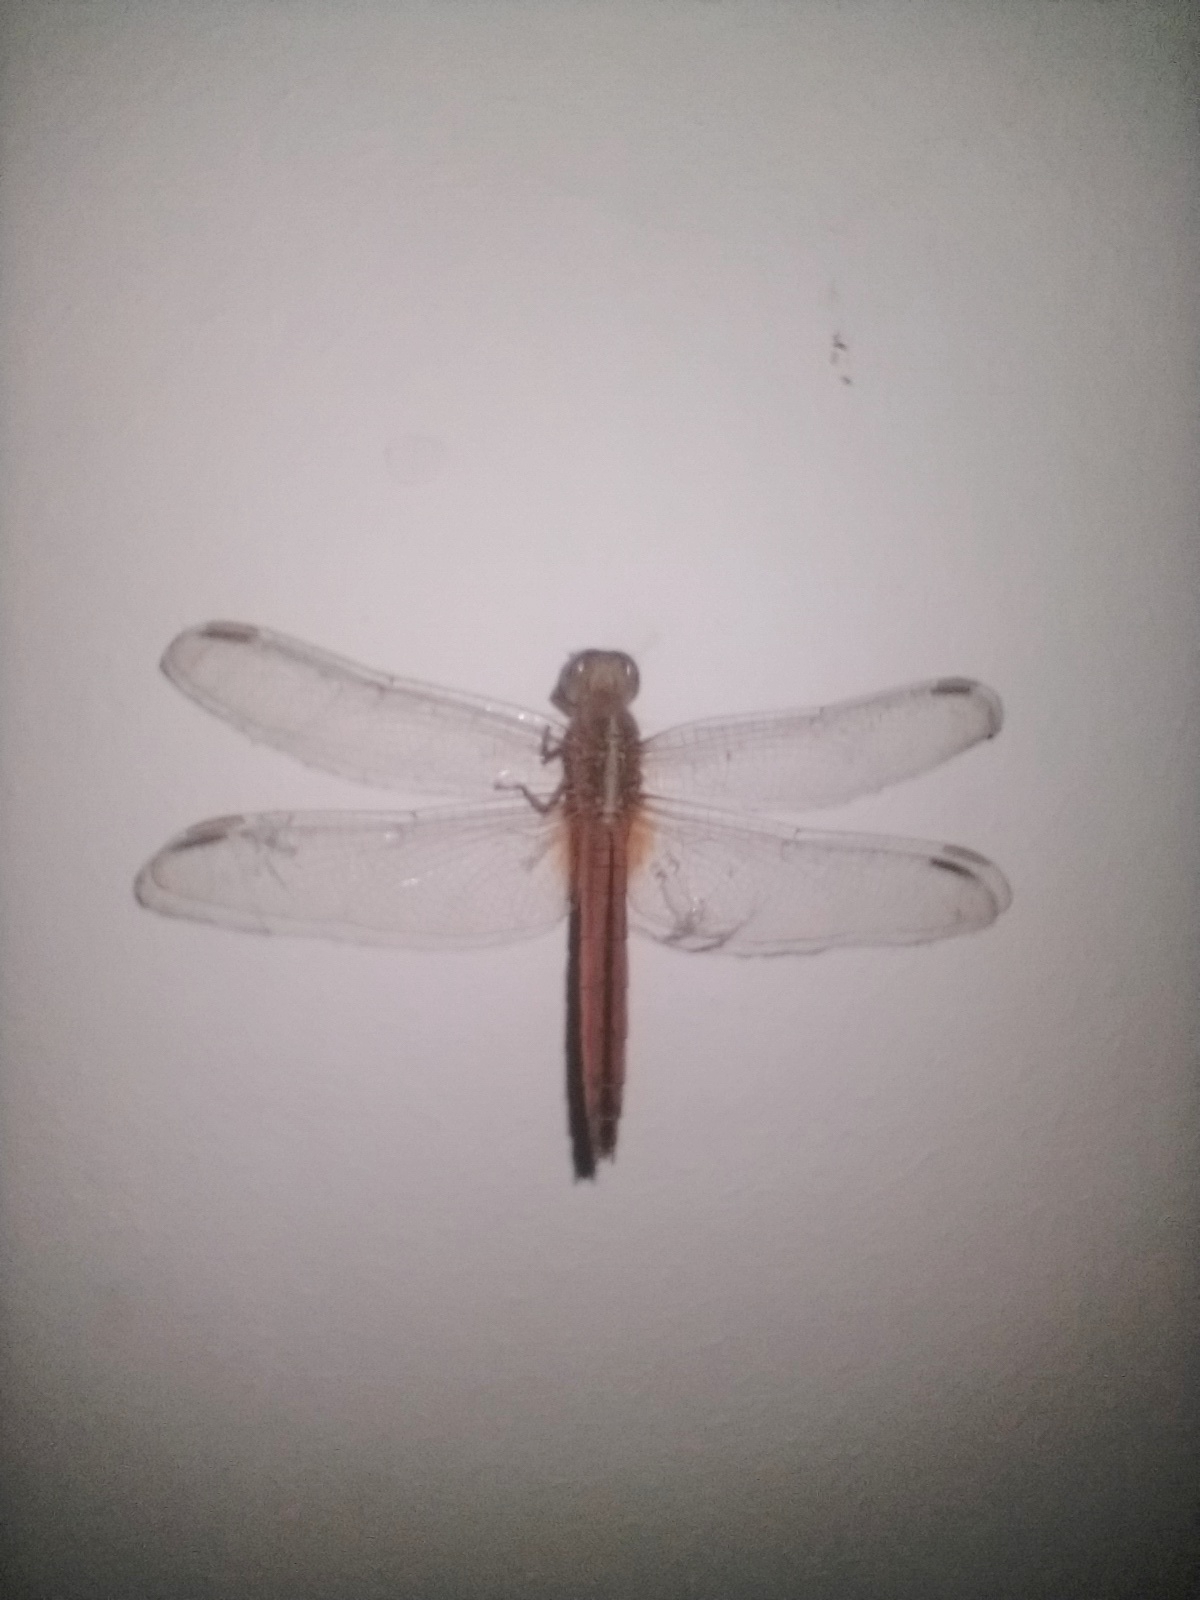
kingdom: Animalia
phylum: Arthropoda
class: Insecta
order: Odonata
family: Libellulidae
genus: Crocothemis
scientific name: Crocothemis servilia
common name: Scarlet skimmer
